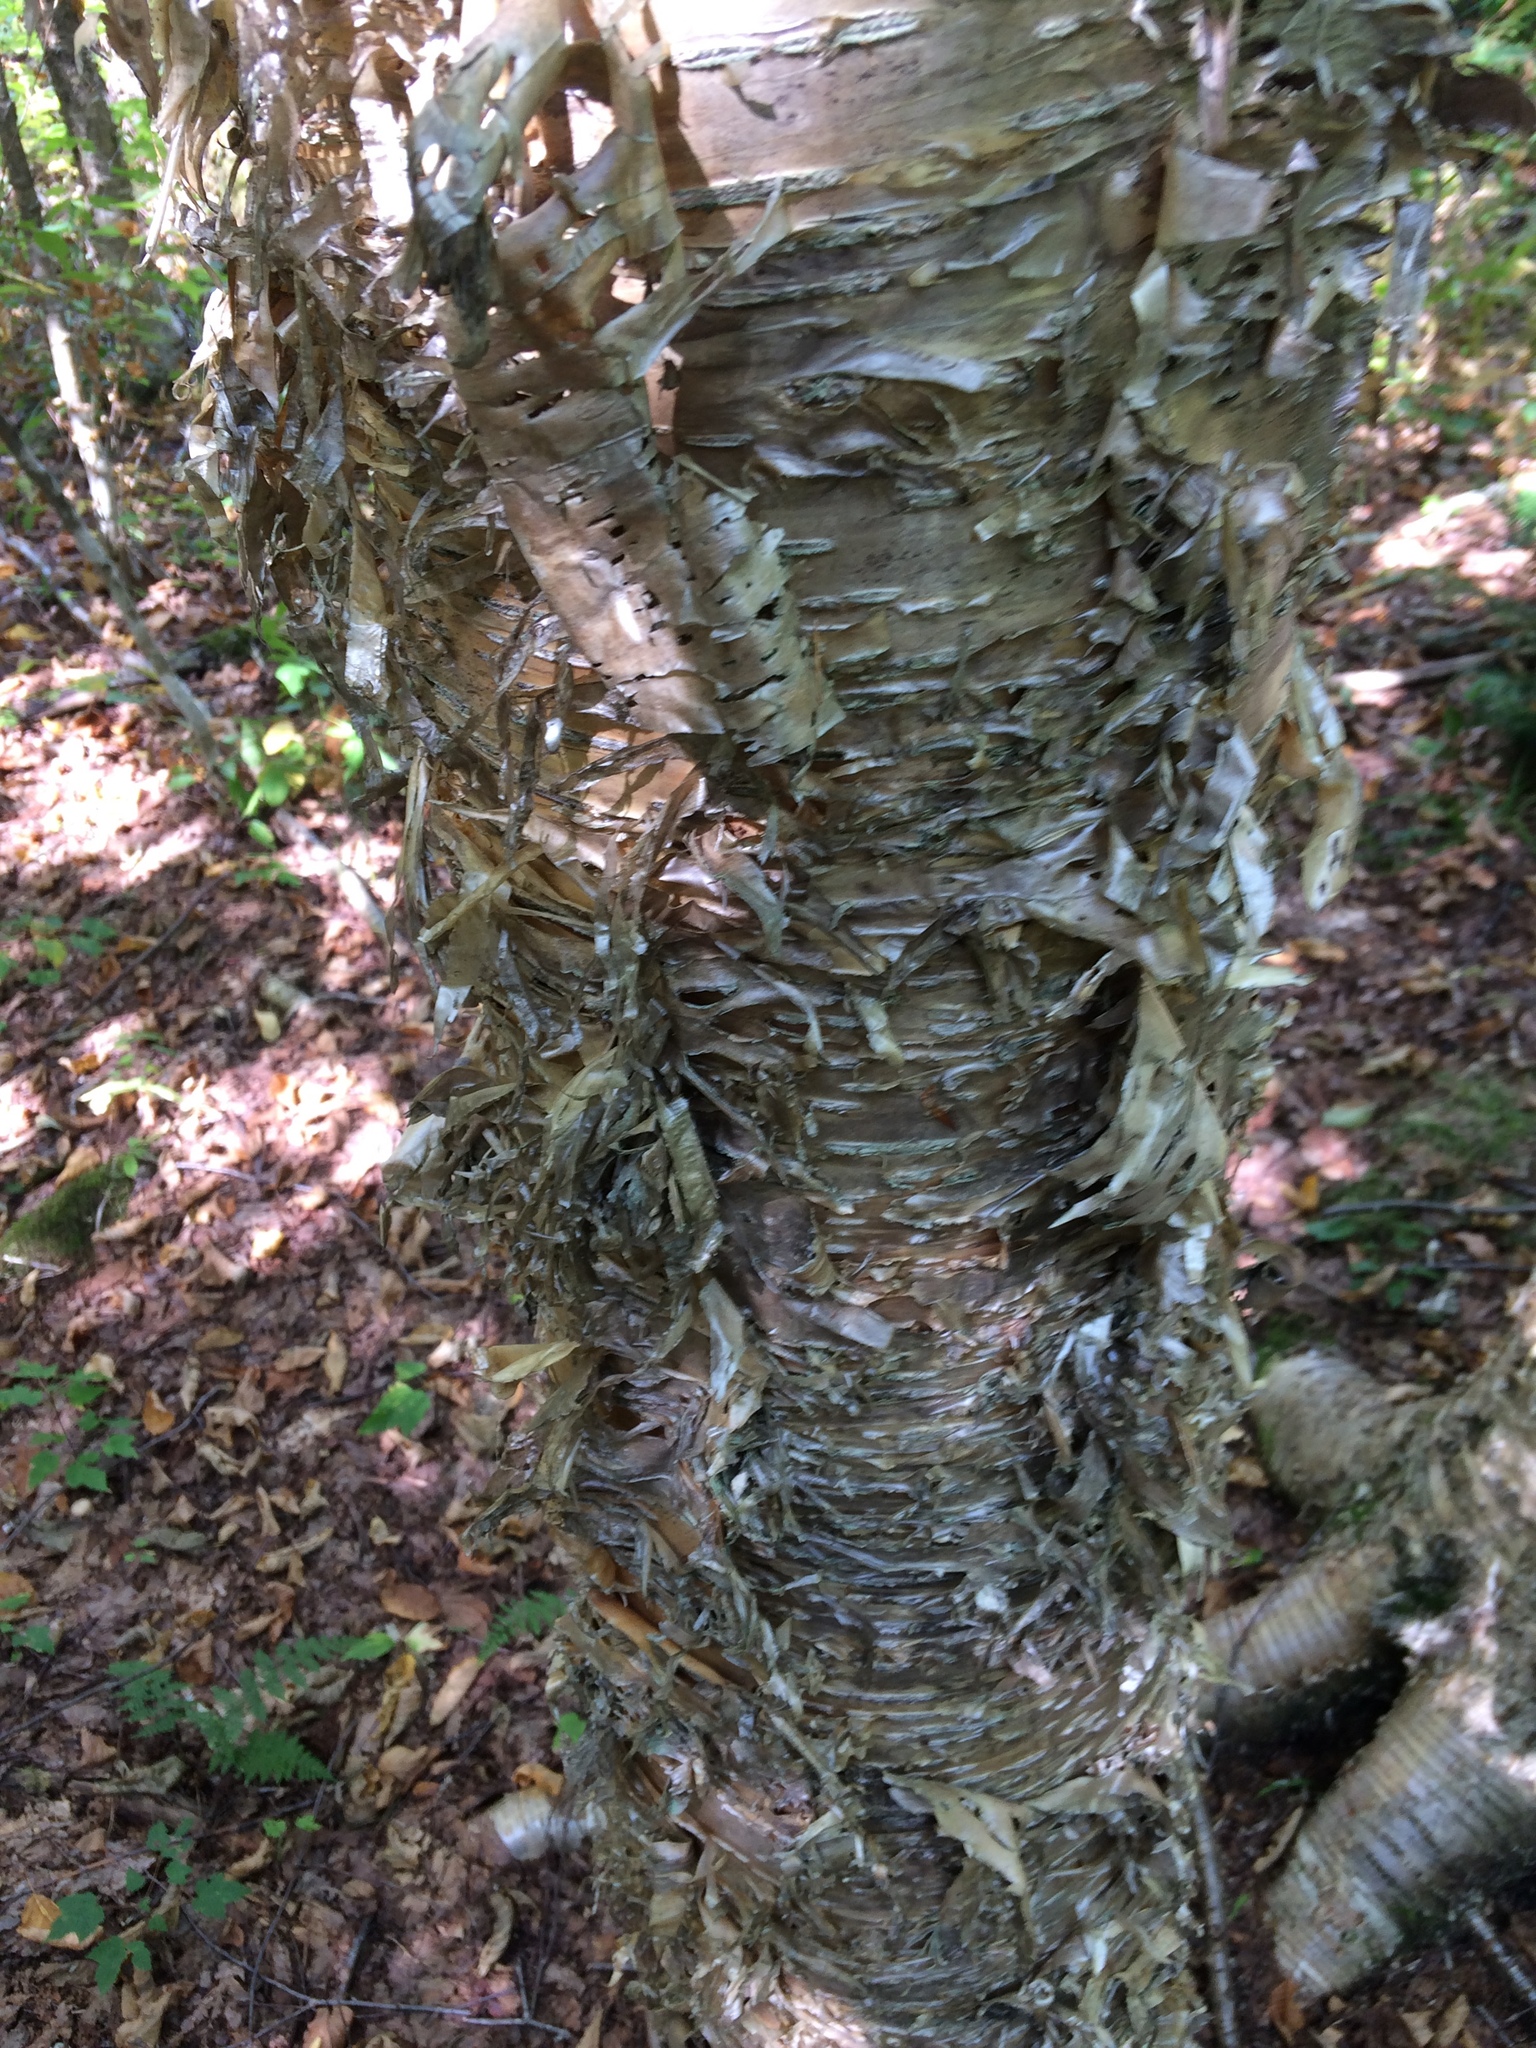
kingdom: Plantae
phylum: Tracheophyta
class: Magnoliopsida
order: Fagales
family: Betulaceae
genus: Betula
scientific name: Betula alleghaniensis
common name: Yellow birch
